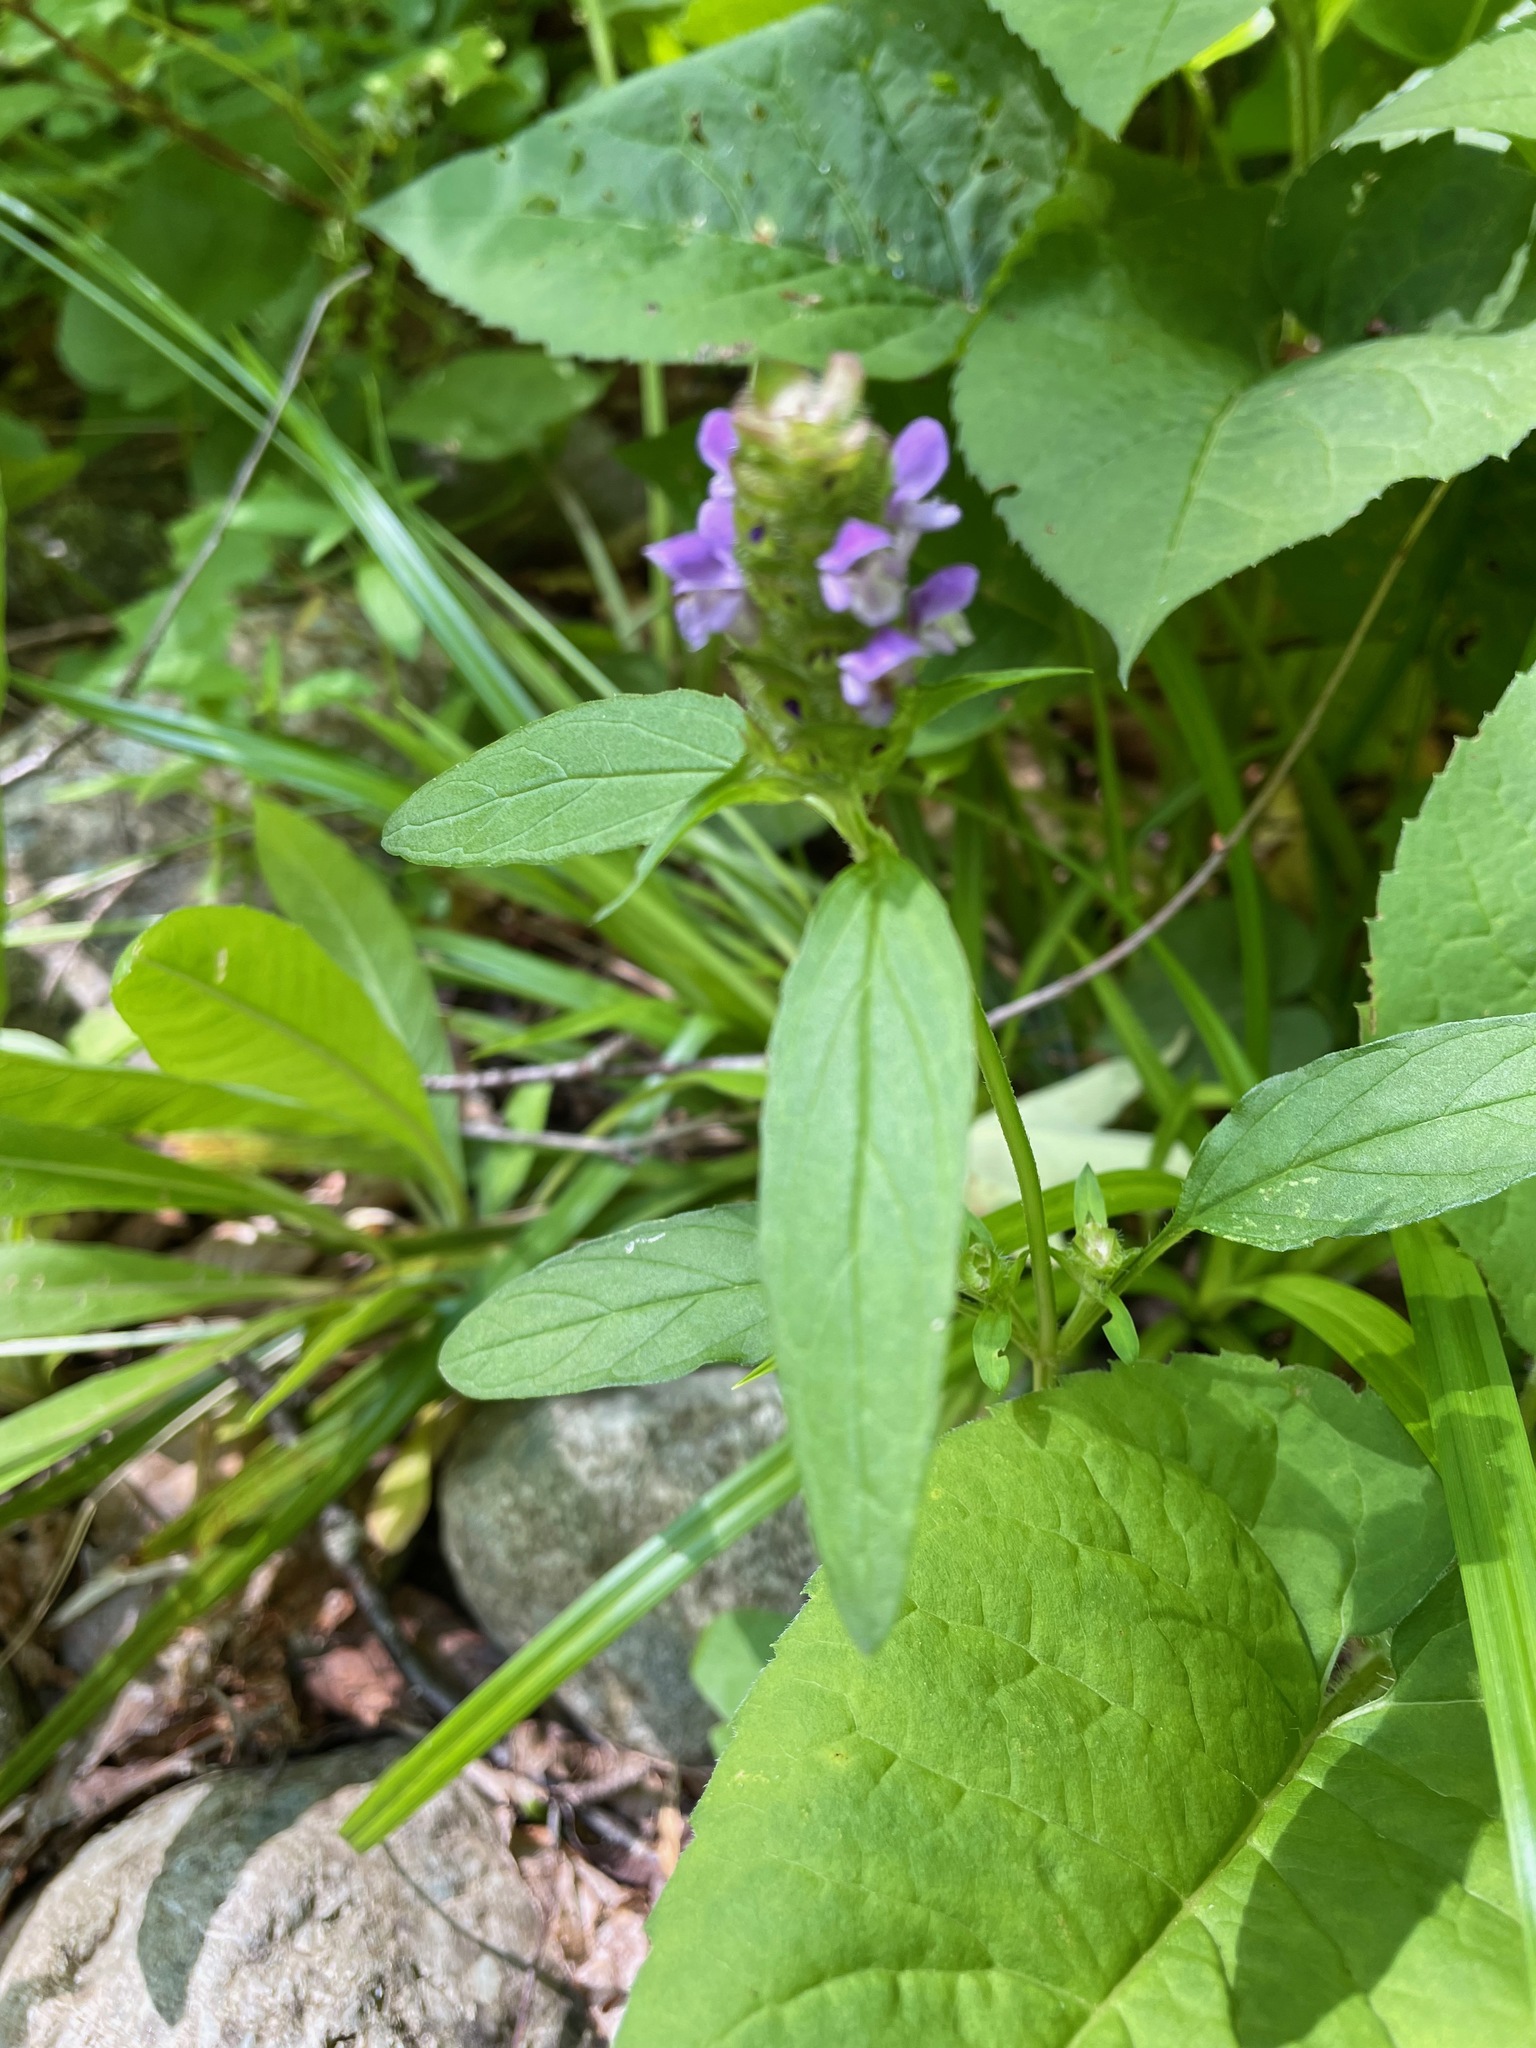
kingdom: Plantae
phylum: Tracheophyta
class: Magnoliopsida
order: Lamiales
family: Lamiaceae
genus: Prunella
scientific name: Prunella vulgaris
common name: Heal-all
